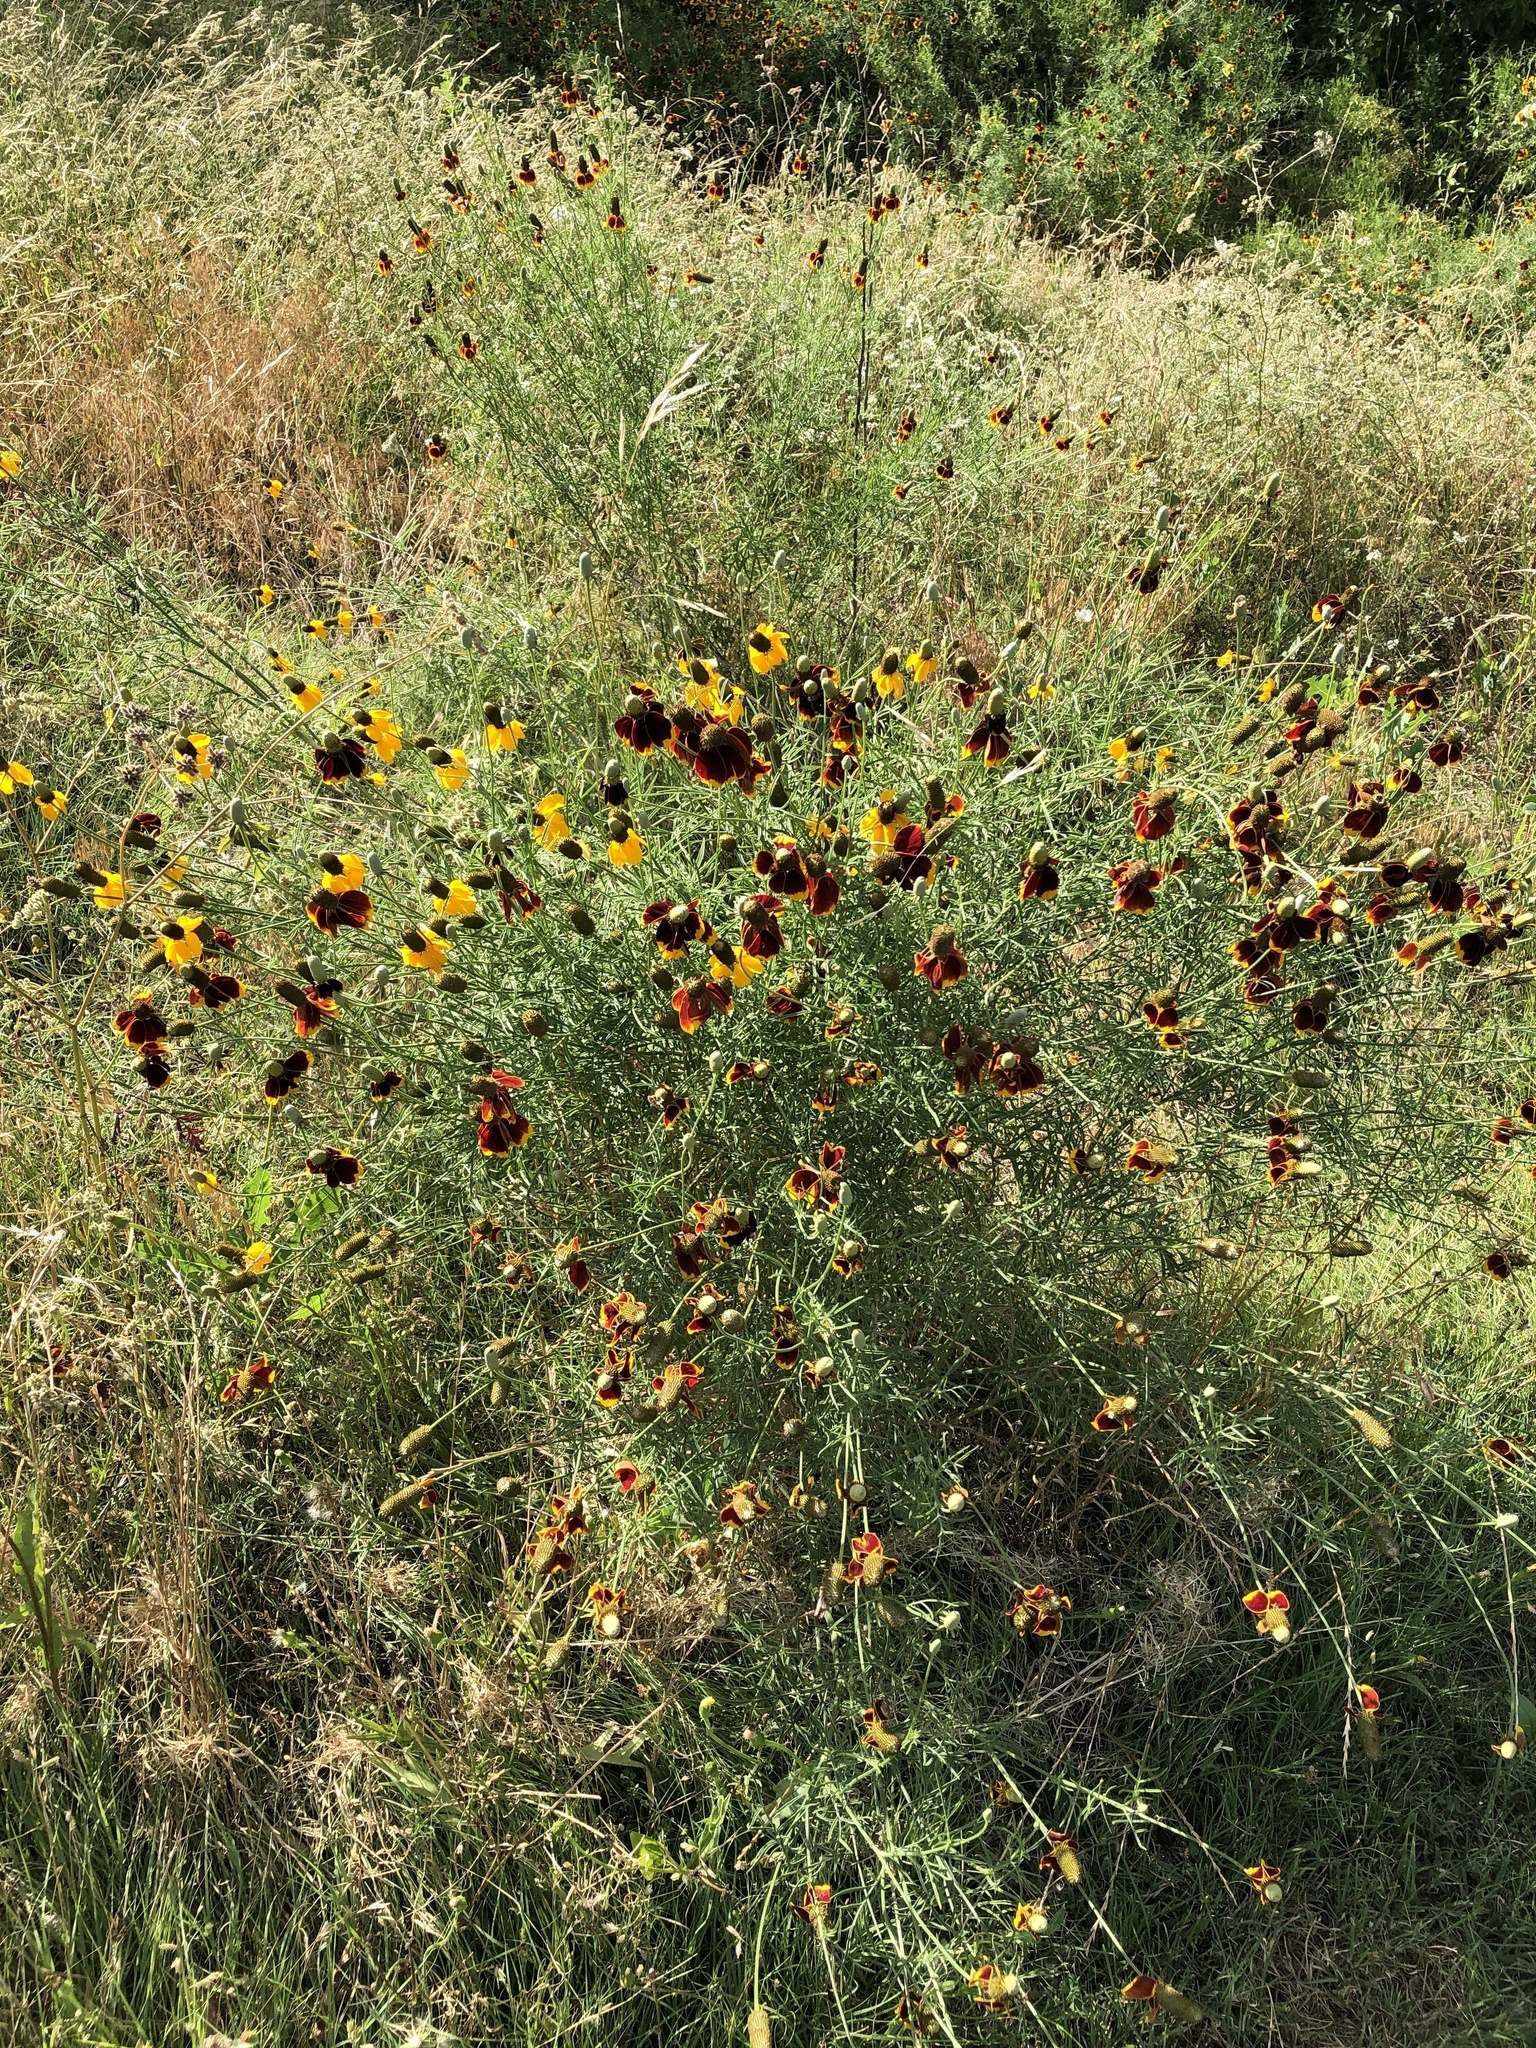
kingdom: Plantae
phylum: Tracheophyta
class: Magnoliopsida
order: Asterales
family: Asteraceae
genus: Ratibida
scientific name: Ratibida columnifera
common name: Prairie coneflower
